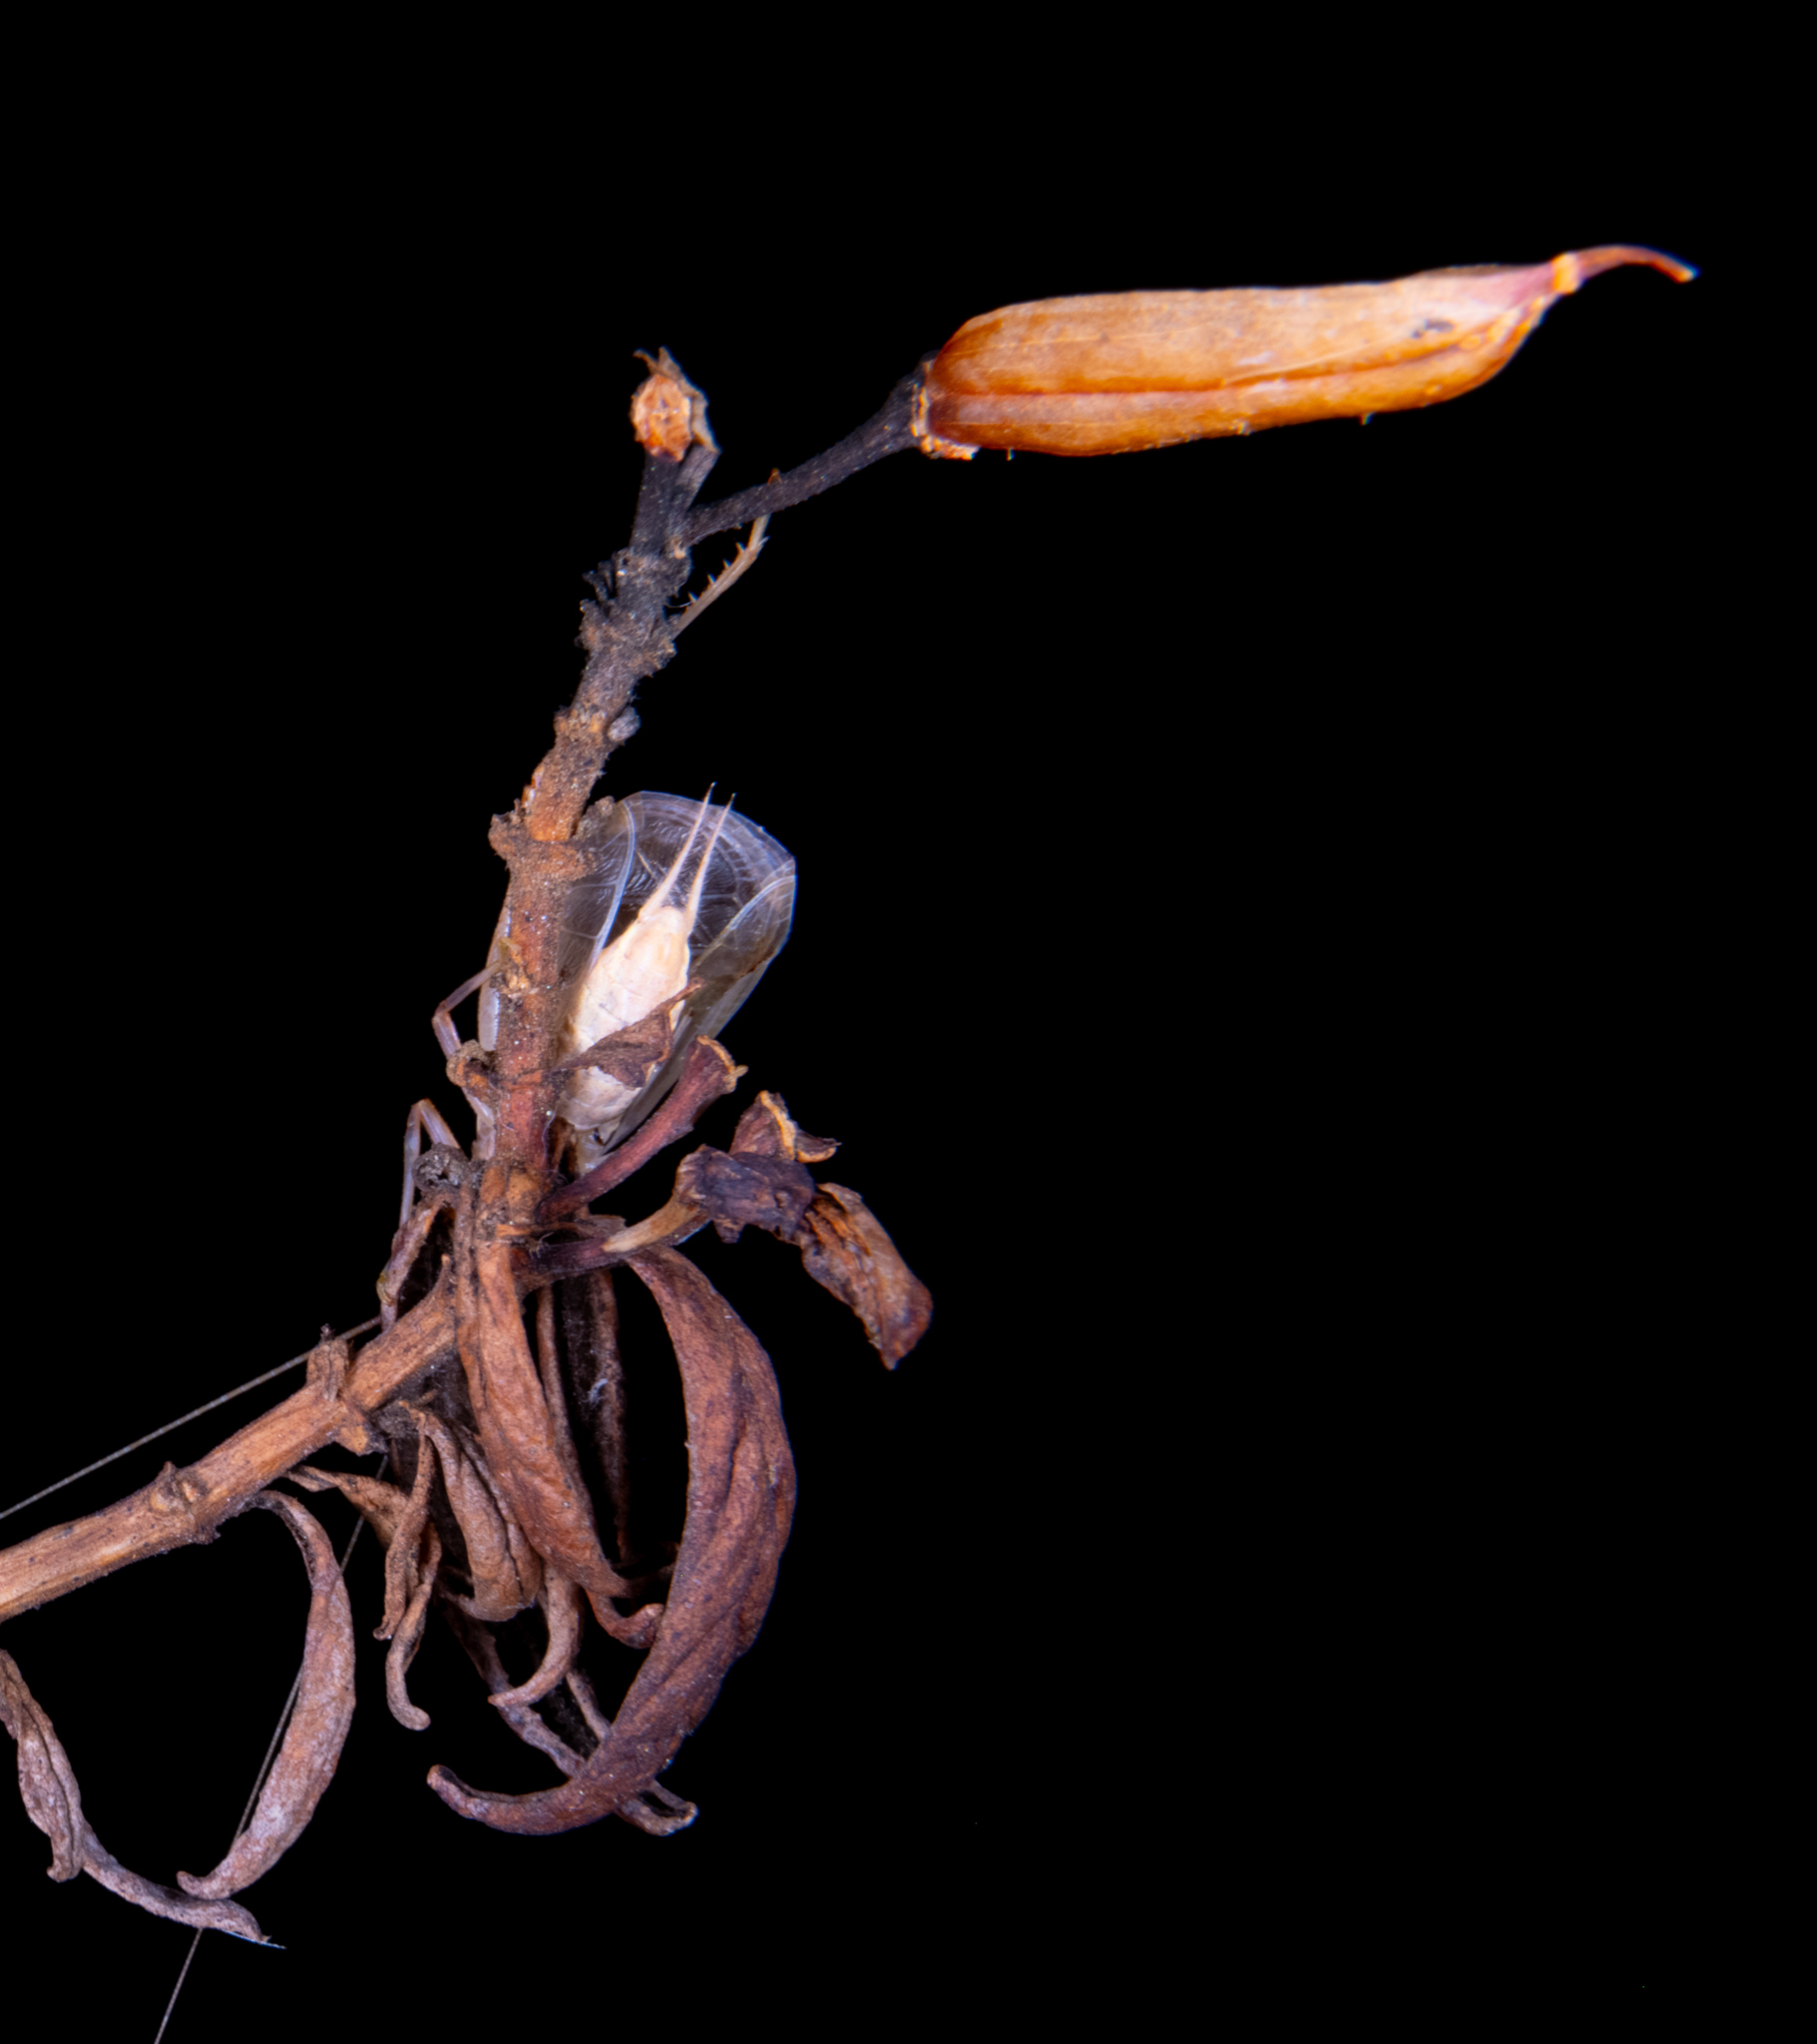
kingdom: Animalia
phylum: Arthropoda
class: Insecta
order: Orthoptera
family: Gryllidae
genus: Oecanthus
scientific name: Oecanthus californicus
